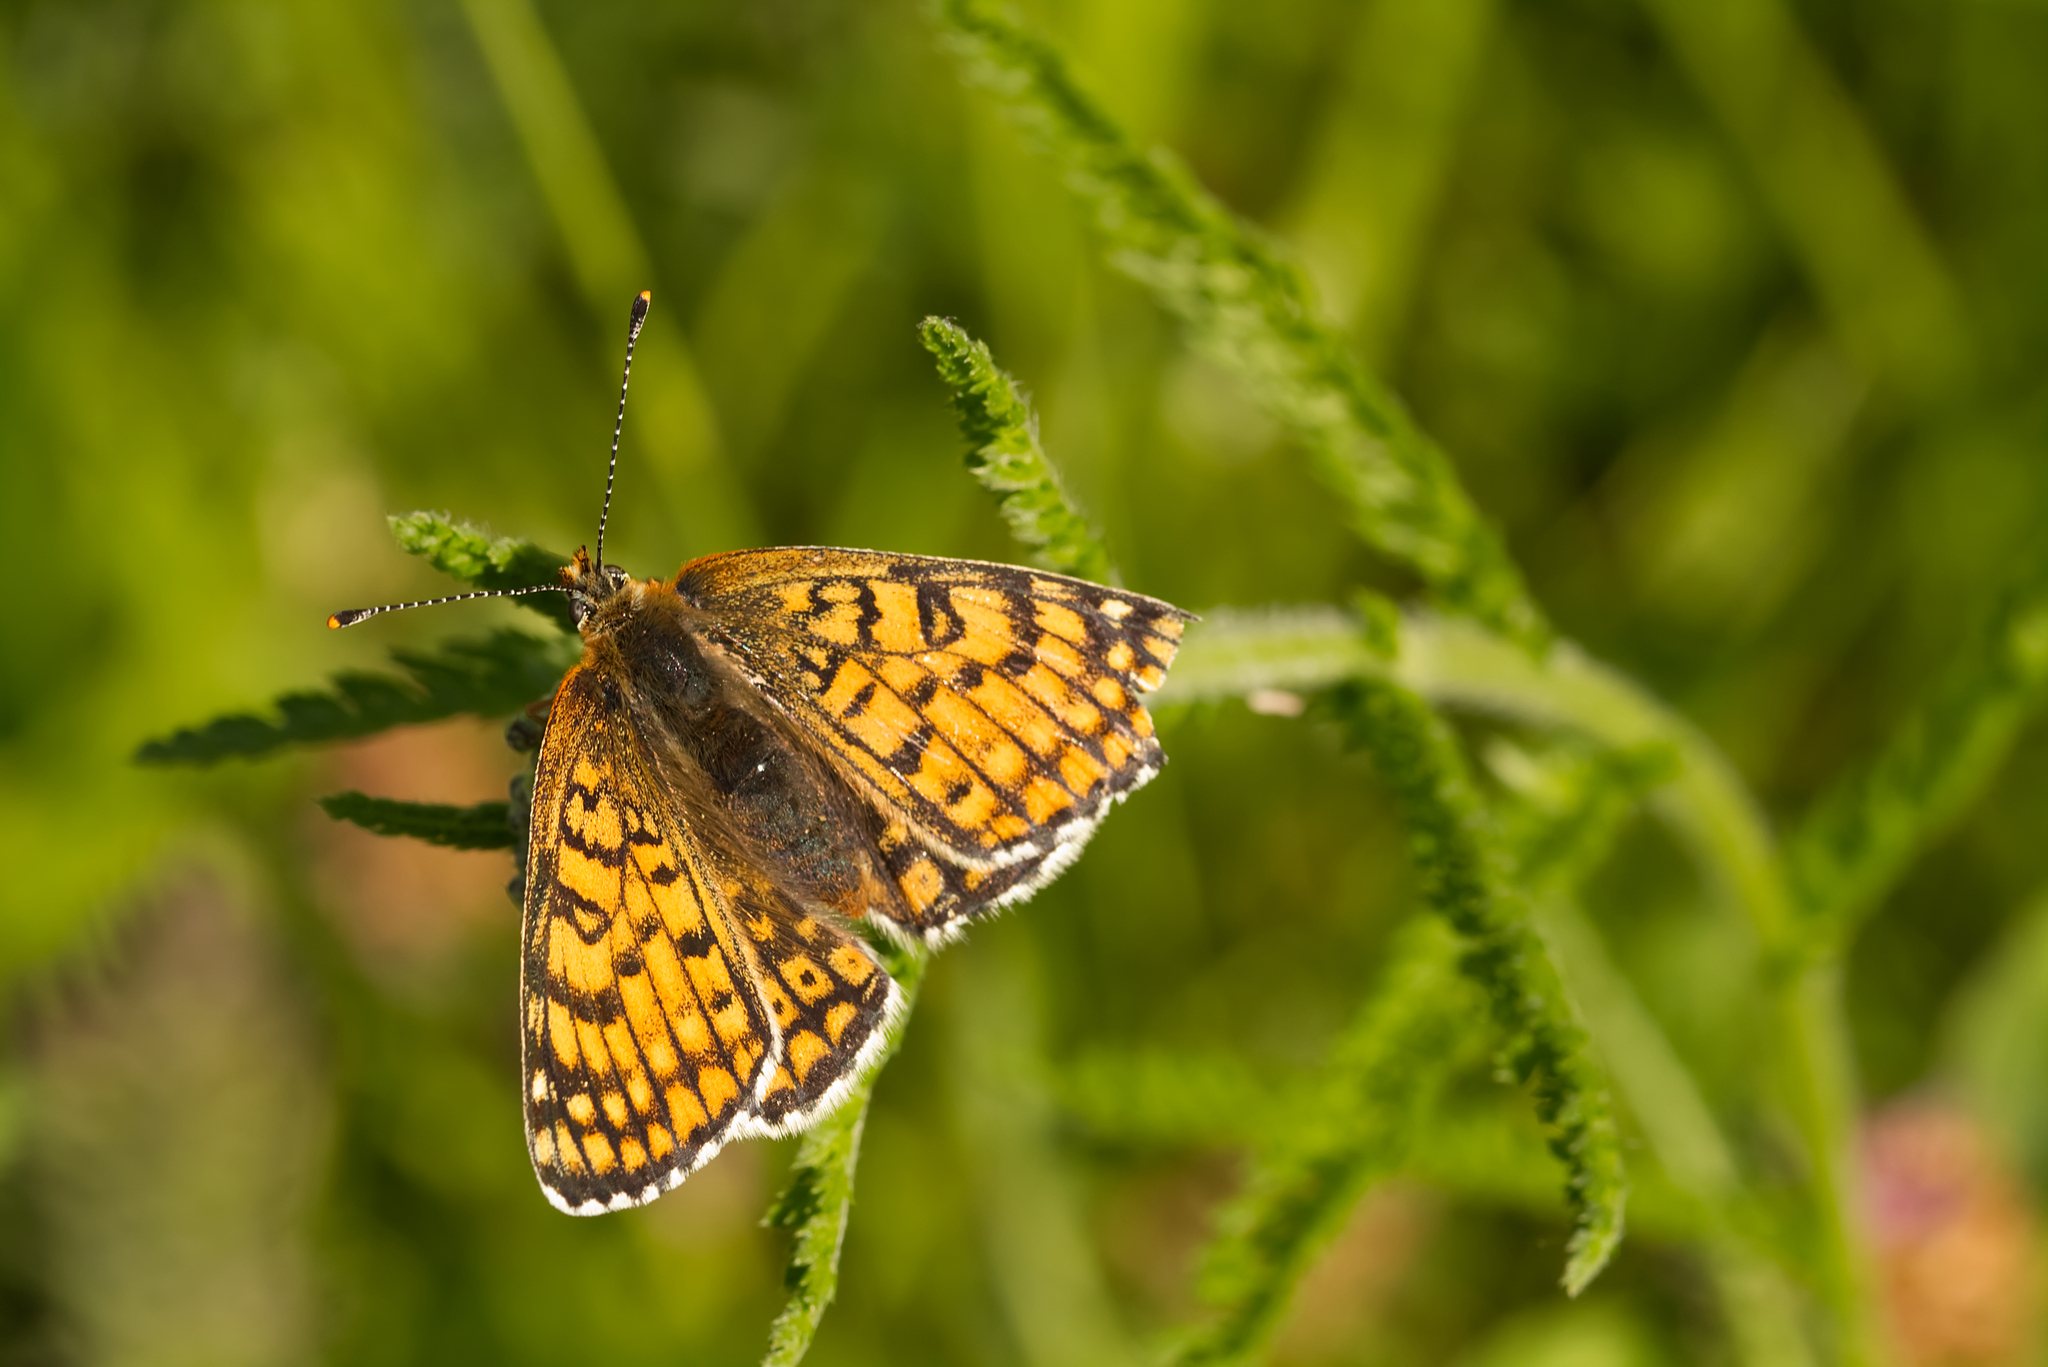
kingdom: Animalia
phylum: Arthropoda
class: Insecta
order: Lepidoptera
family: Nymphalidae
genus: Melitaea
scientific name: Melitaea cinxia
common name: Glanville fritillary
